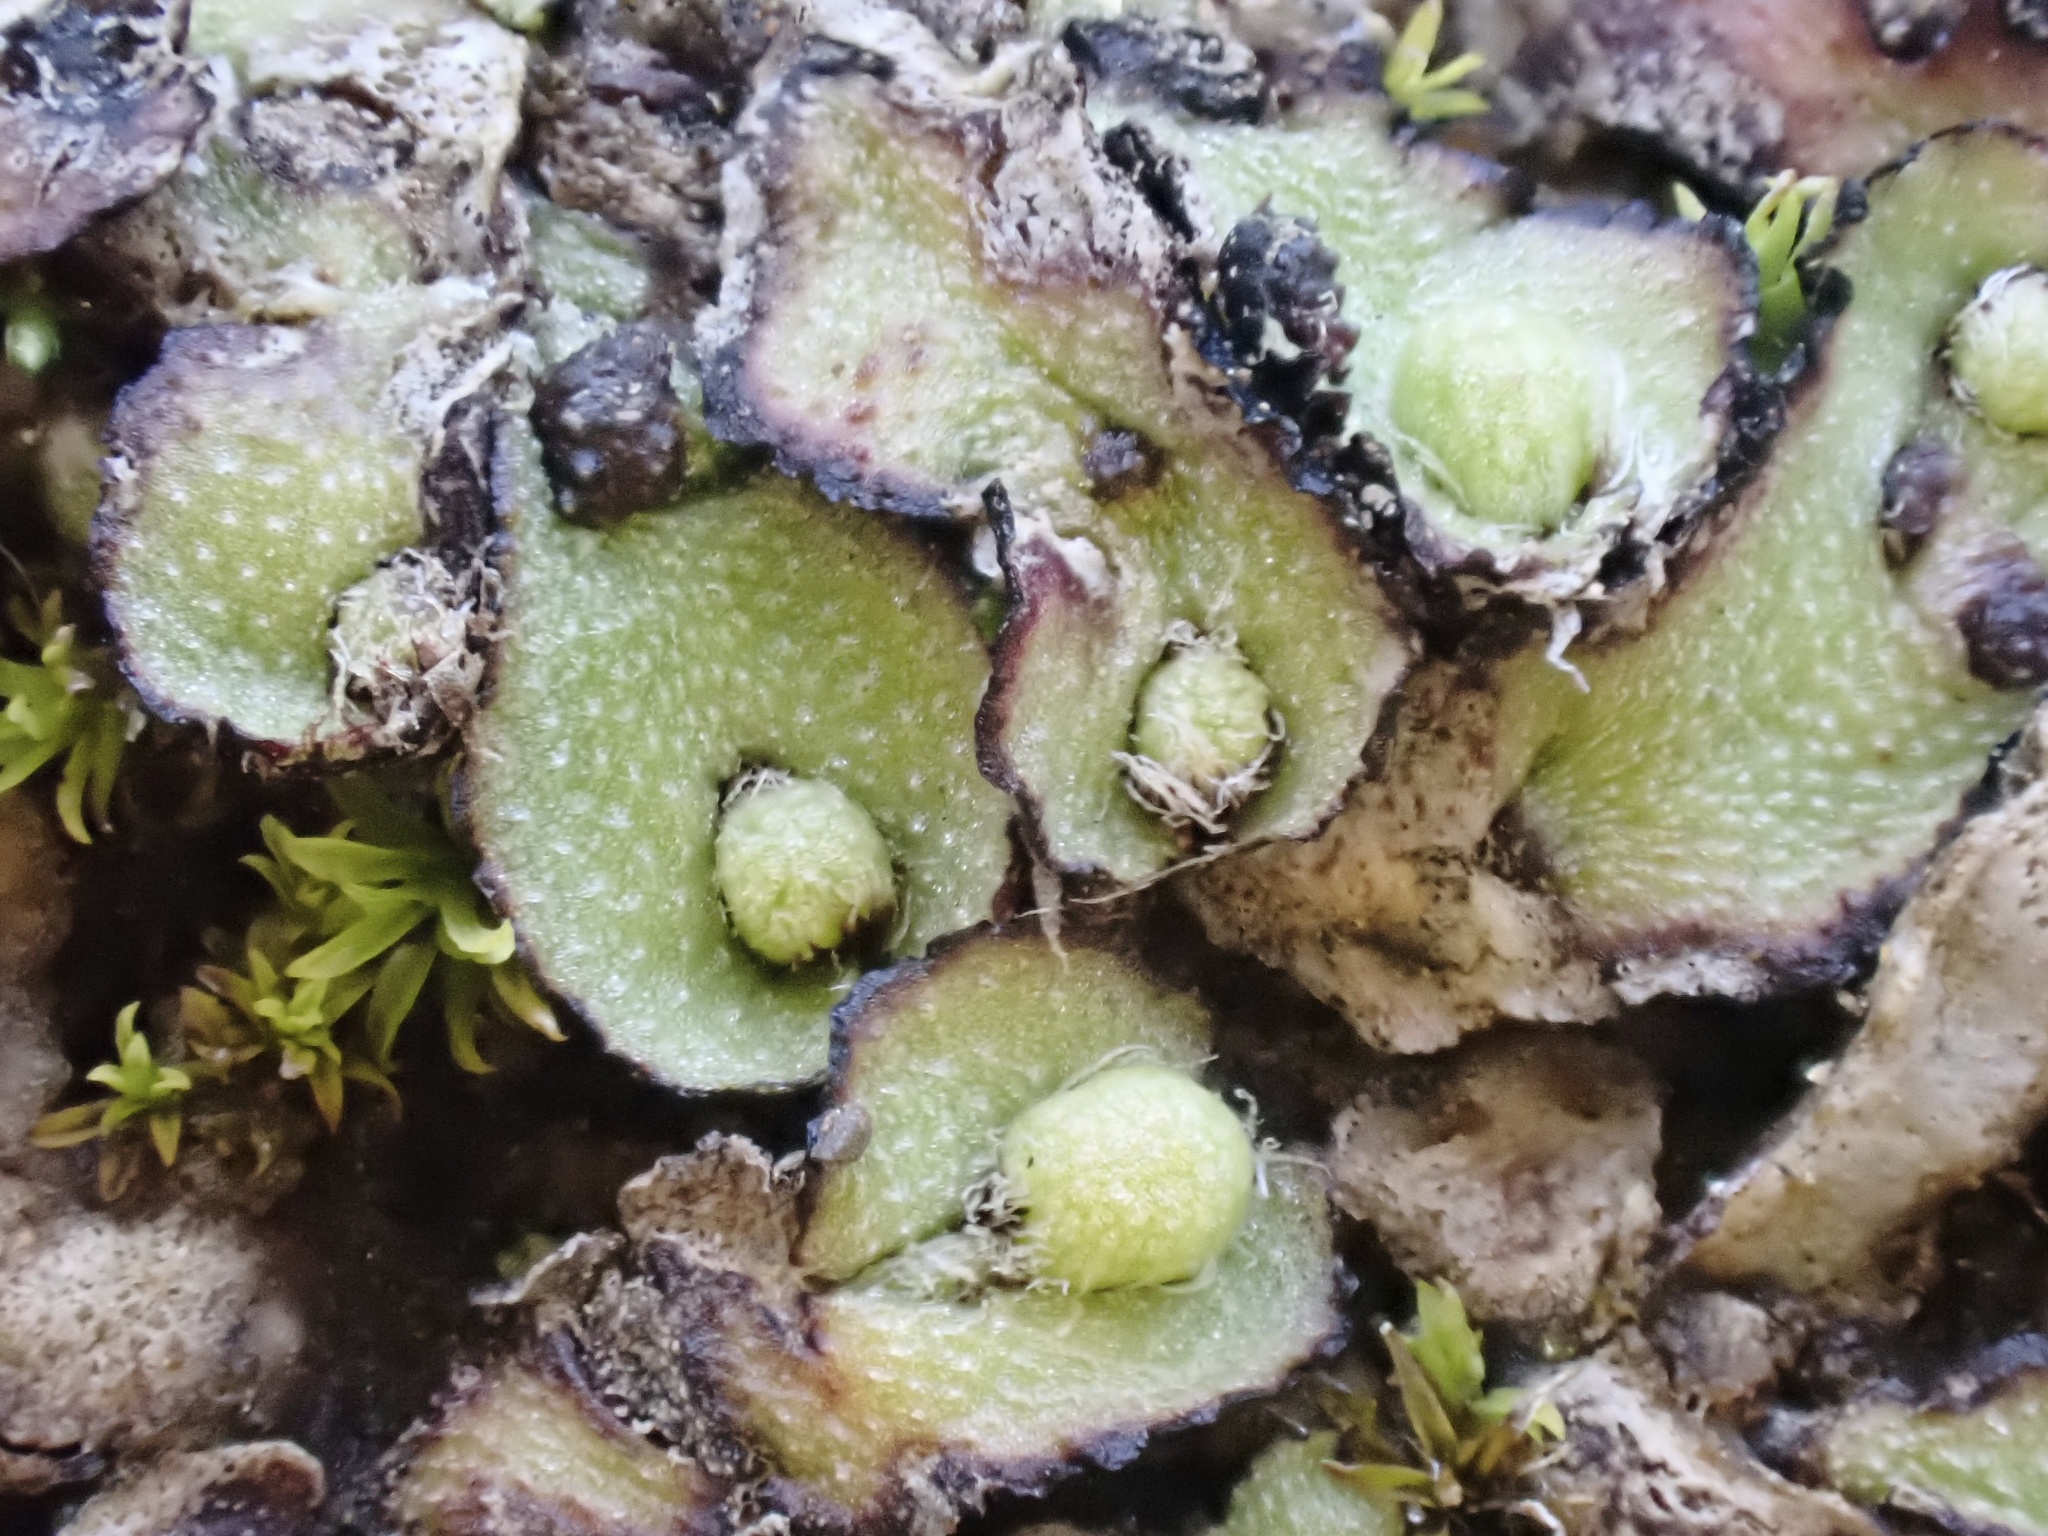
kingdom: Plantae
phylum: Marchantiophyta
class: Marchantiopsida
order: Marchantiales
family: Aytoniaceae
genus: Reboulia
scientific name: Reboulia hemisphaerica
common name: Purple-margined liverwort
